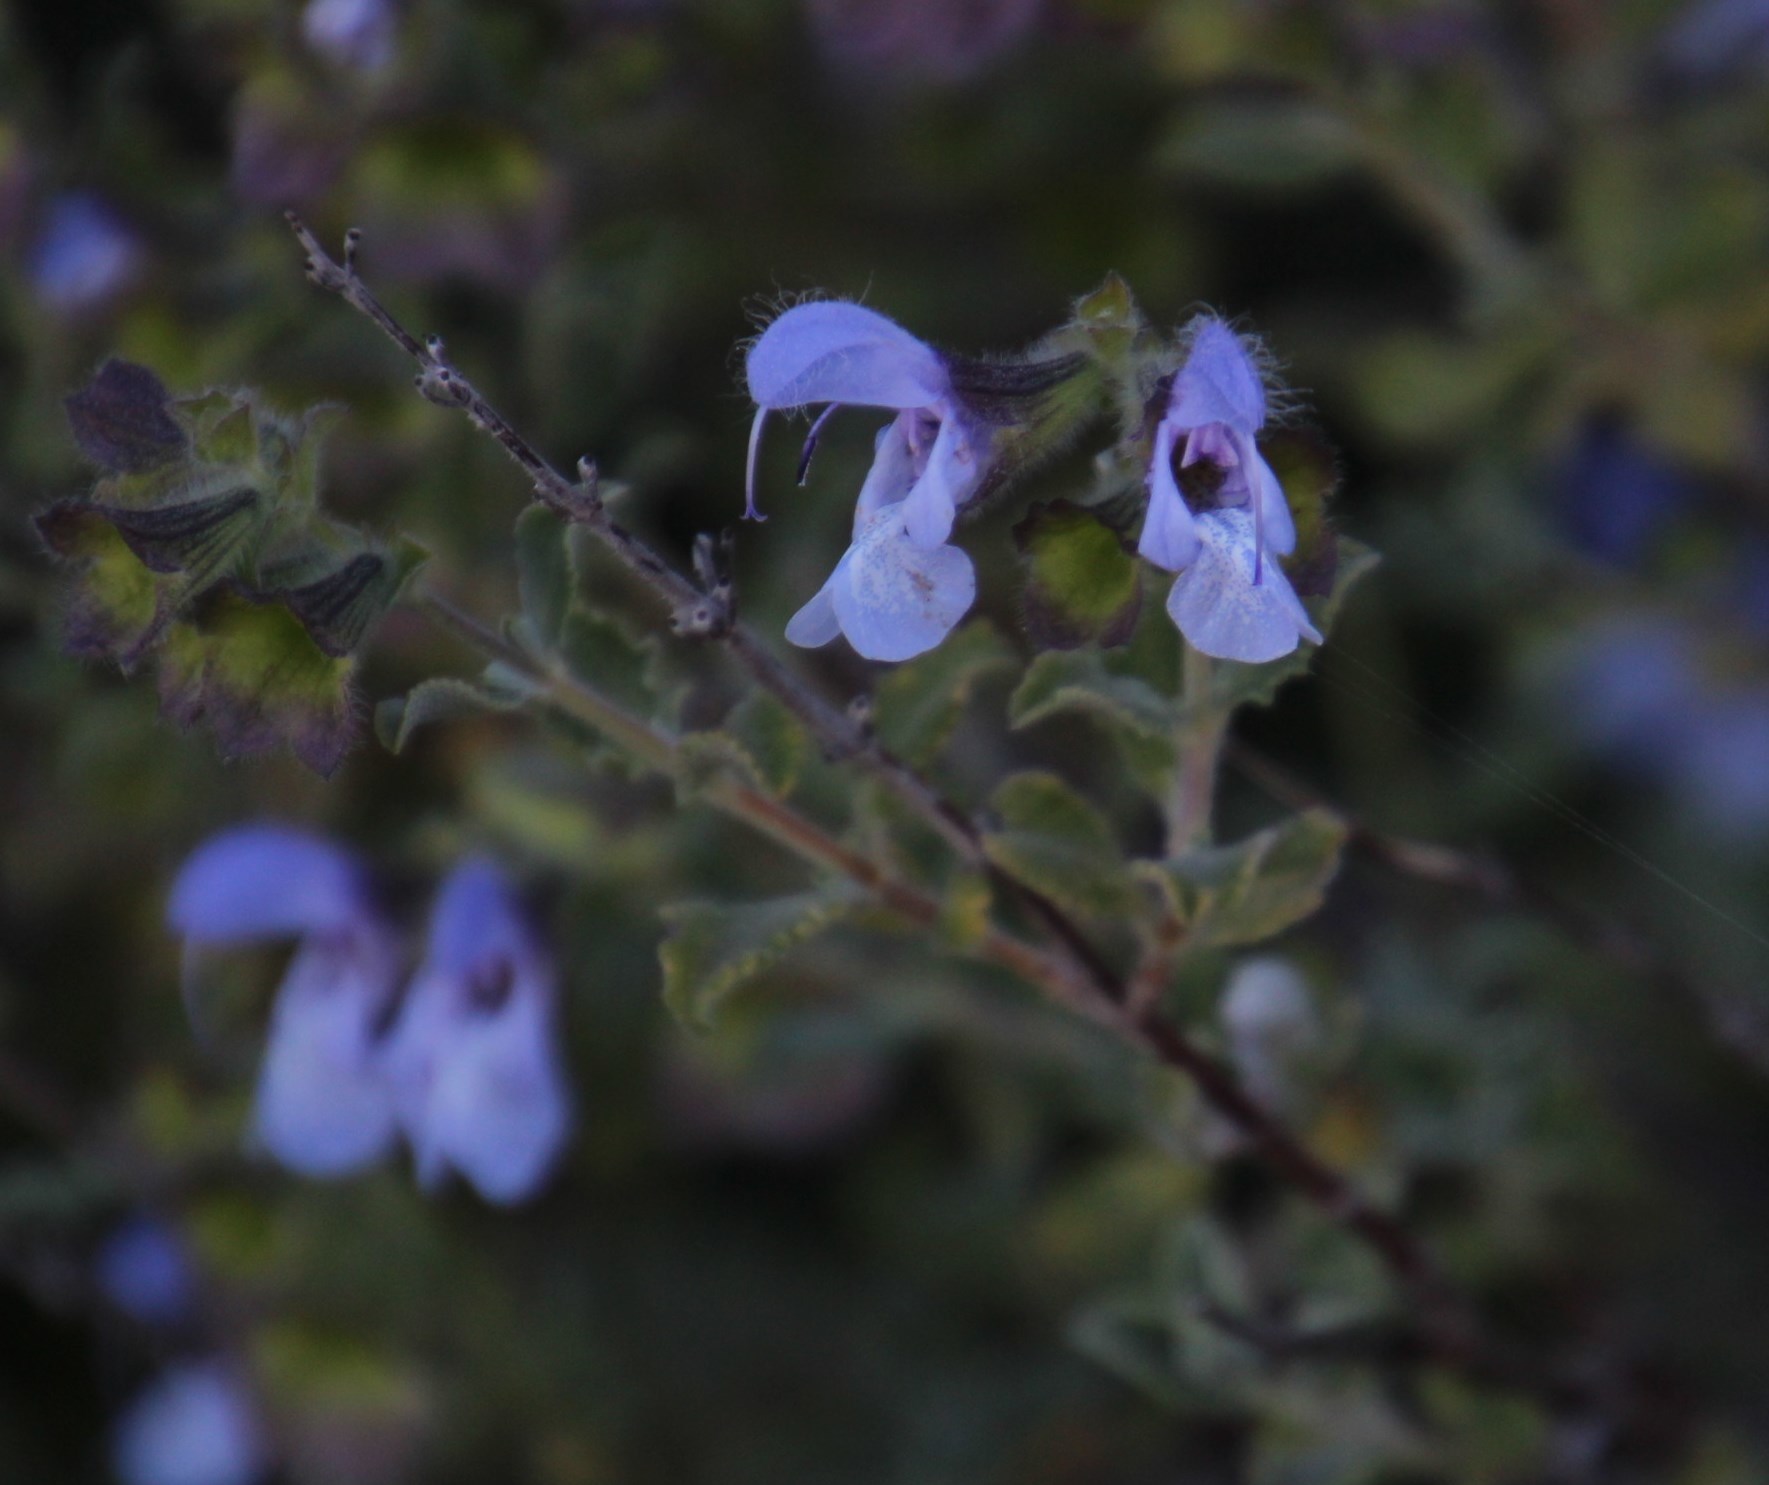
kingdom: Plantae
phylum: Tracheophyta
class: Magnoliopsida
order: Lamiales
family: Lamiaceae
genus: Salvia
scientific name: Salvia africana
